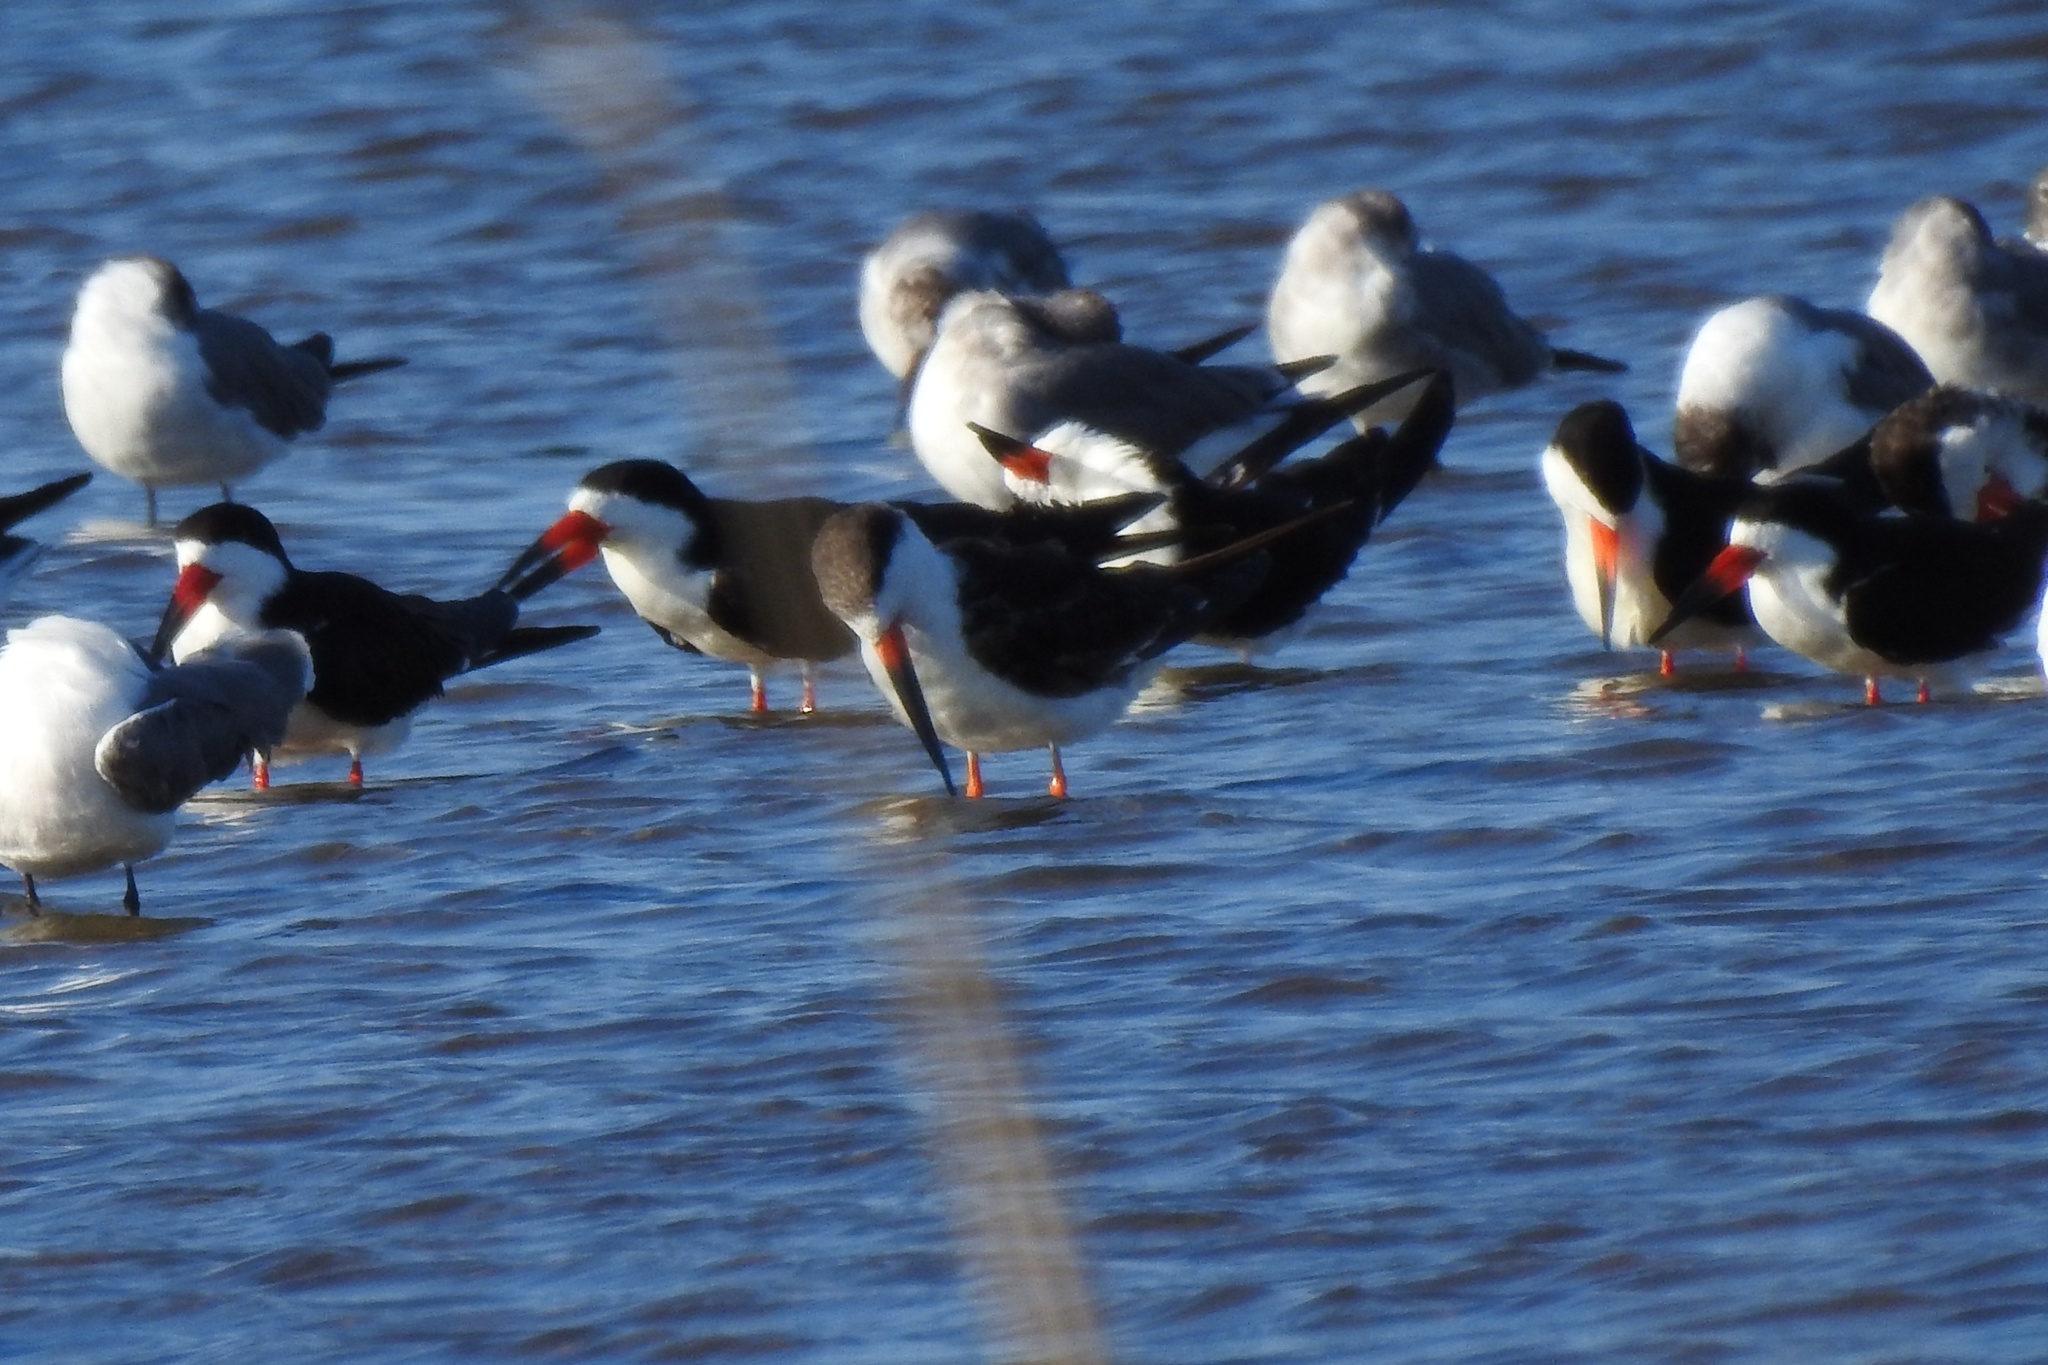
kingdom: Animalia
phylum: Chordata
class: Aves
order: Charadriiformes
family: Laridae
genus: Rynchops
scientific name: Rynchops niger
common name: Black skimmer
